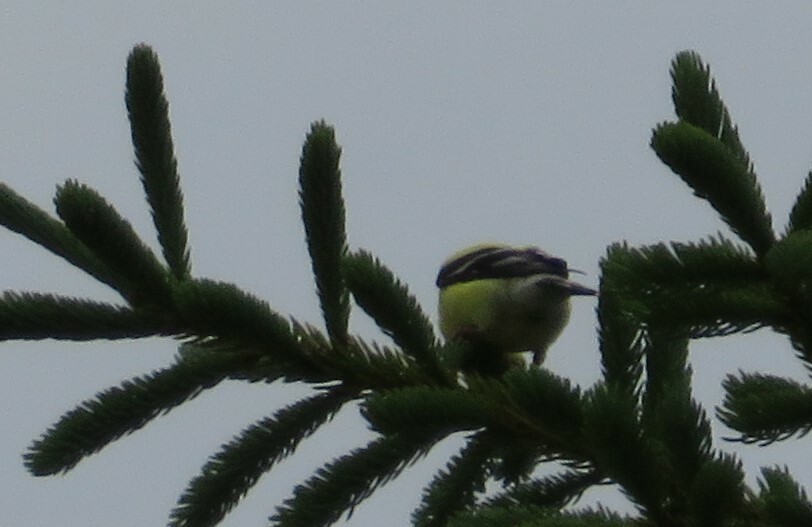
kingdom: Animalia
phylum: Chordata
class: Aves
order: Passeriformes
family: Fringillidae
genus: Spinus
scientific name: Spinus tristis
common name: American goldfinch
